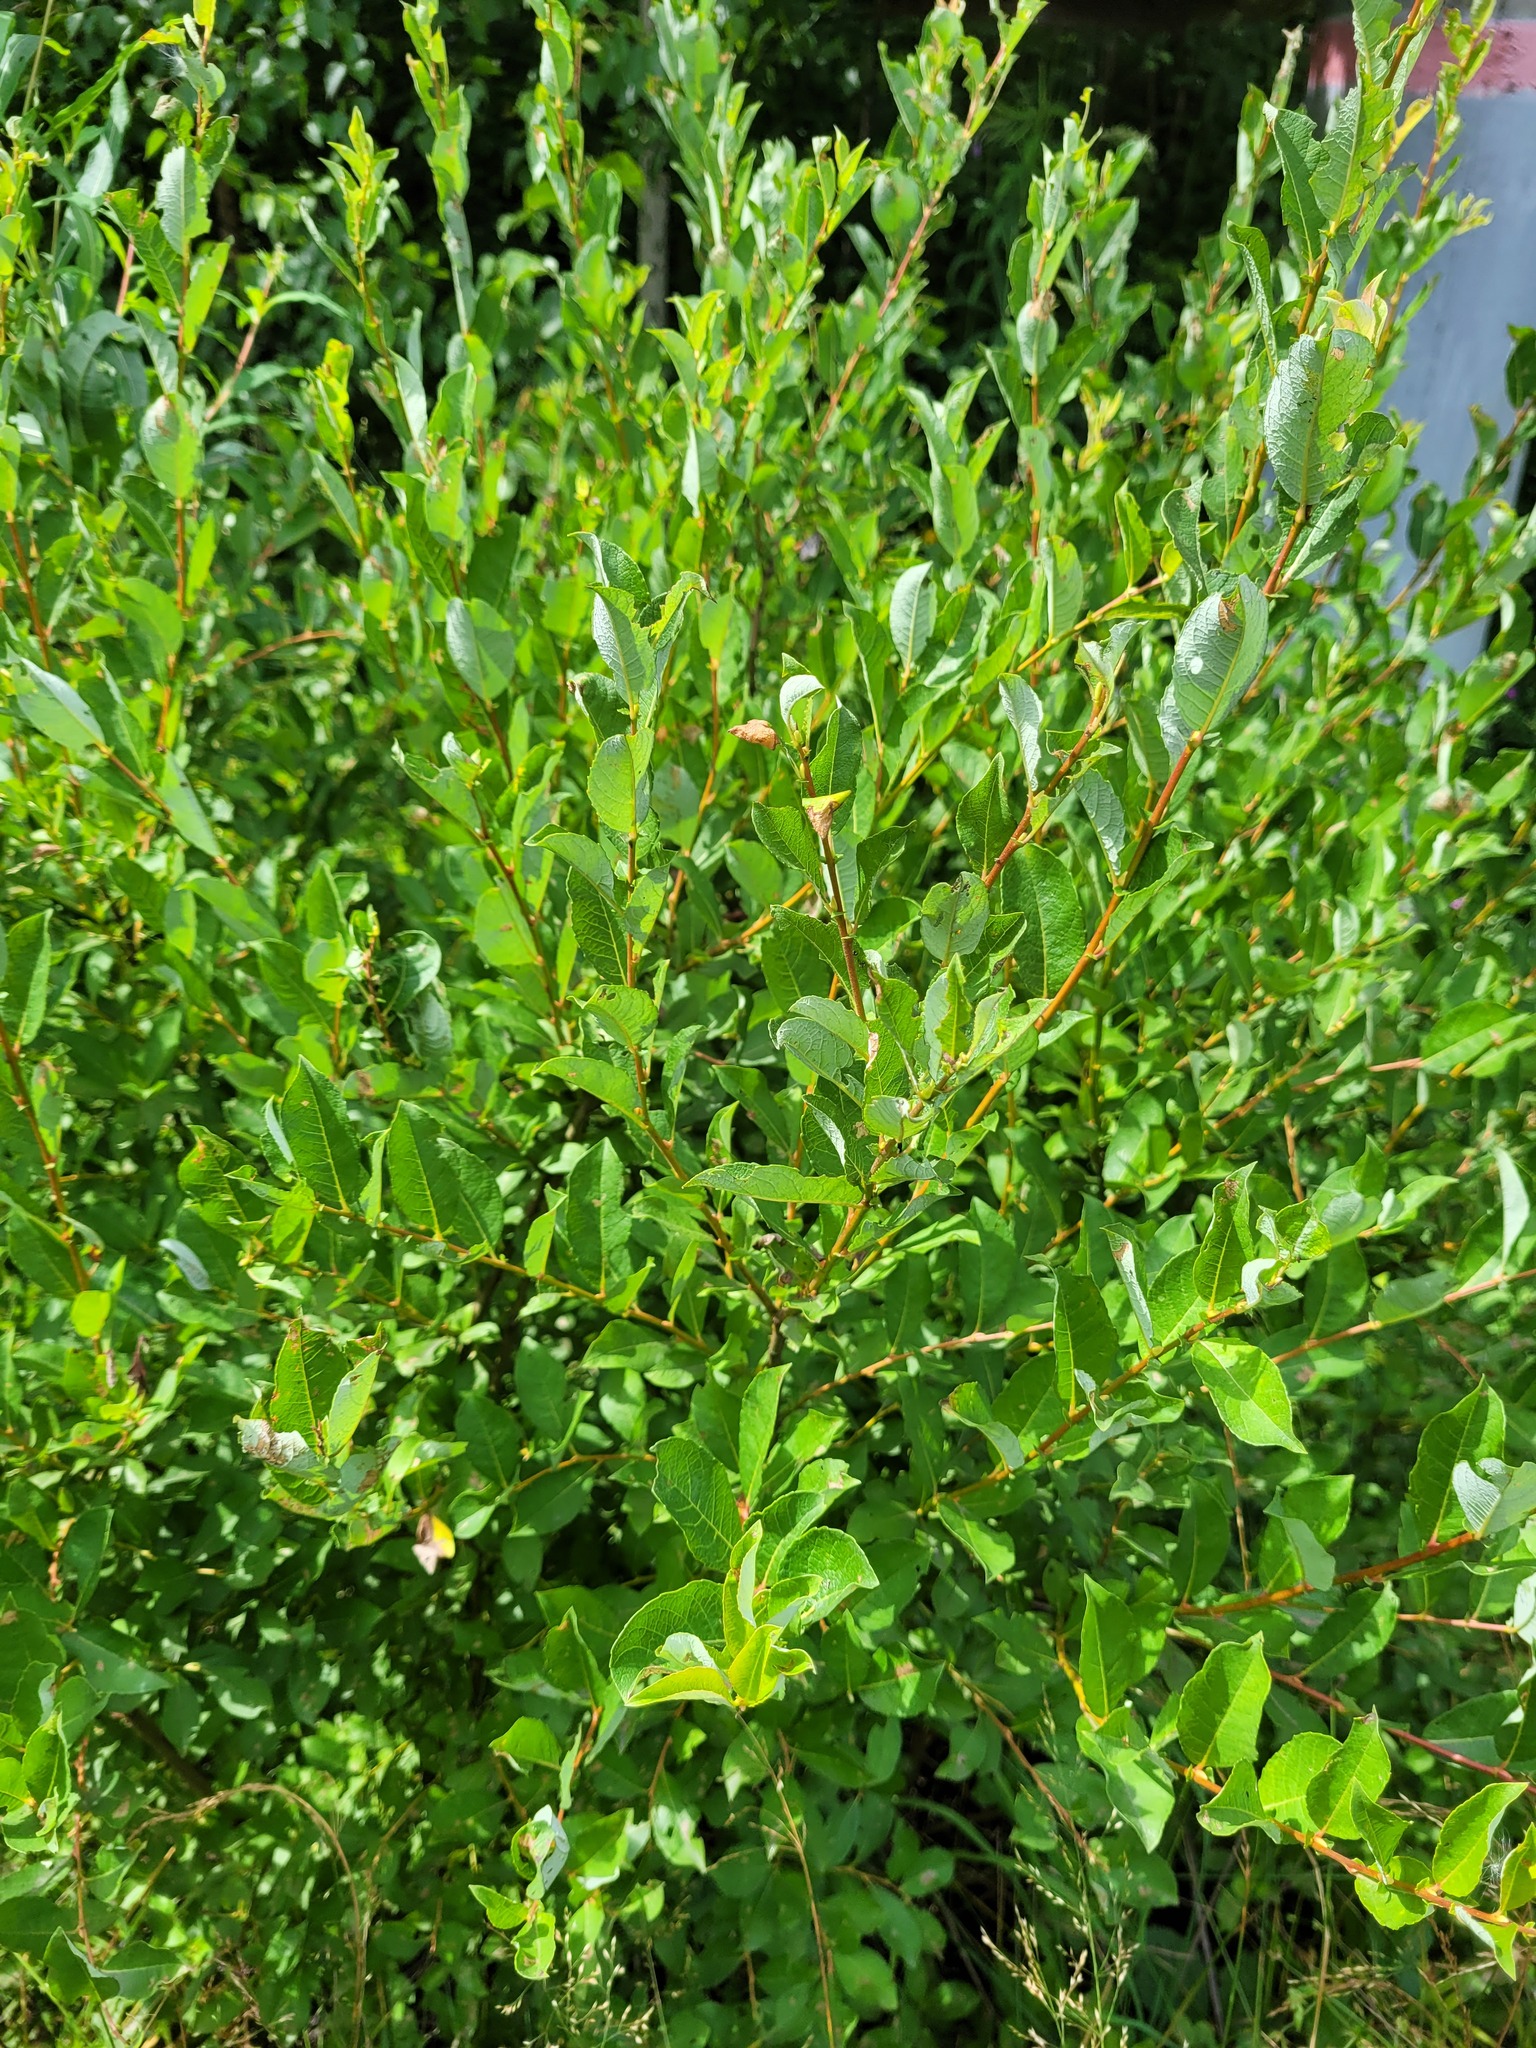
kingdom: Plantae
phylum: Tracheophyta
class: Magnoliopsida
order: Malpighiales
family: Salicaceae
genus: Salix
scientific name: Salix starkeana
